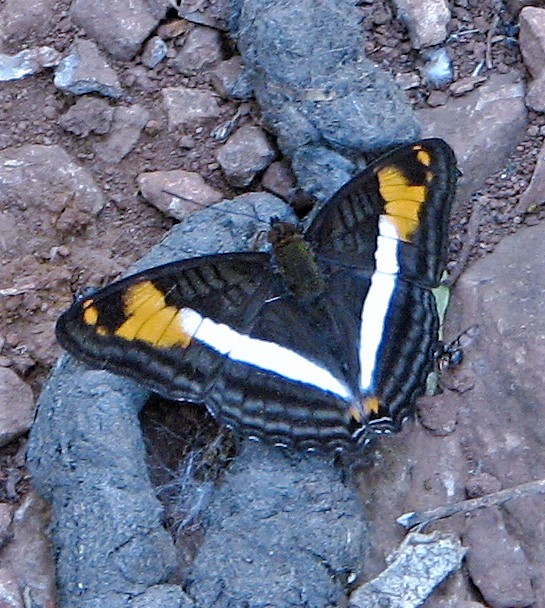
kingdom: Animalia
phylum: Arthropoda
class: Insecta
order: Lepidoptera
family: Nymphalidae
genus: Limenitis
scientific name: Limenitis malea
